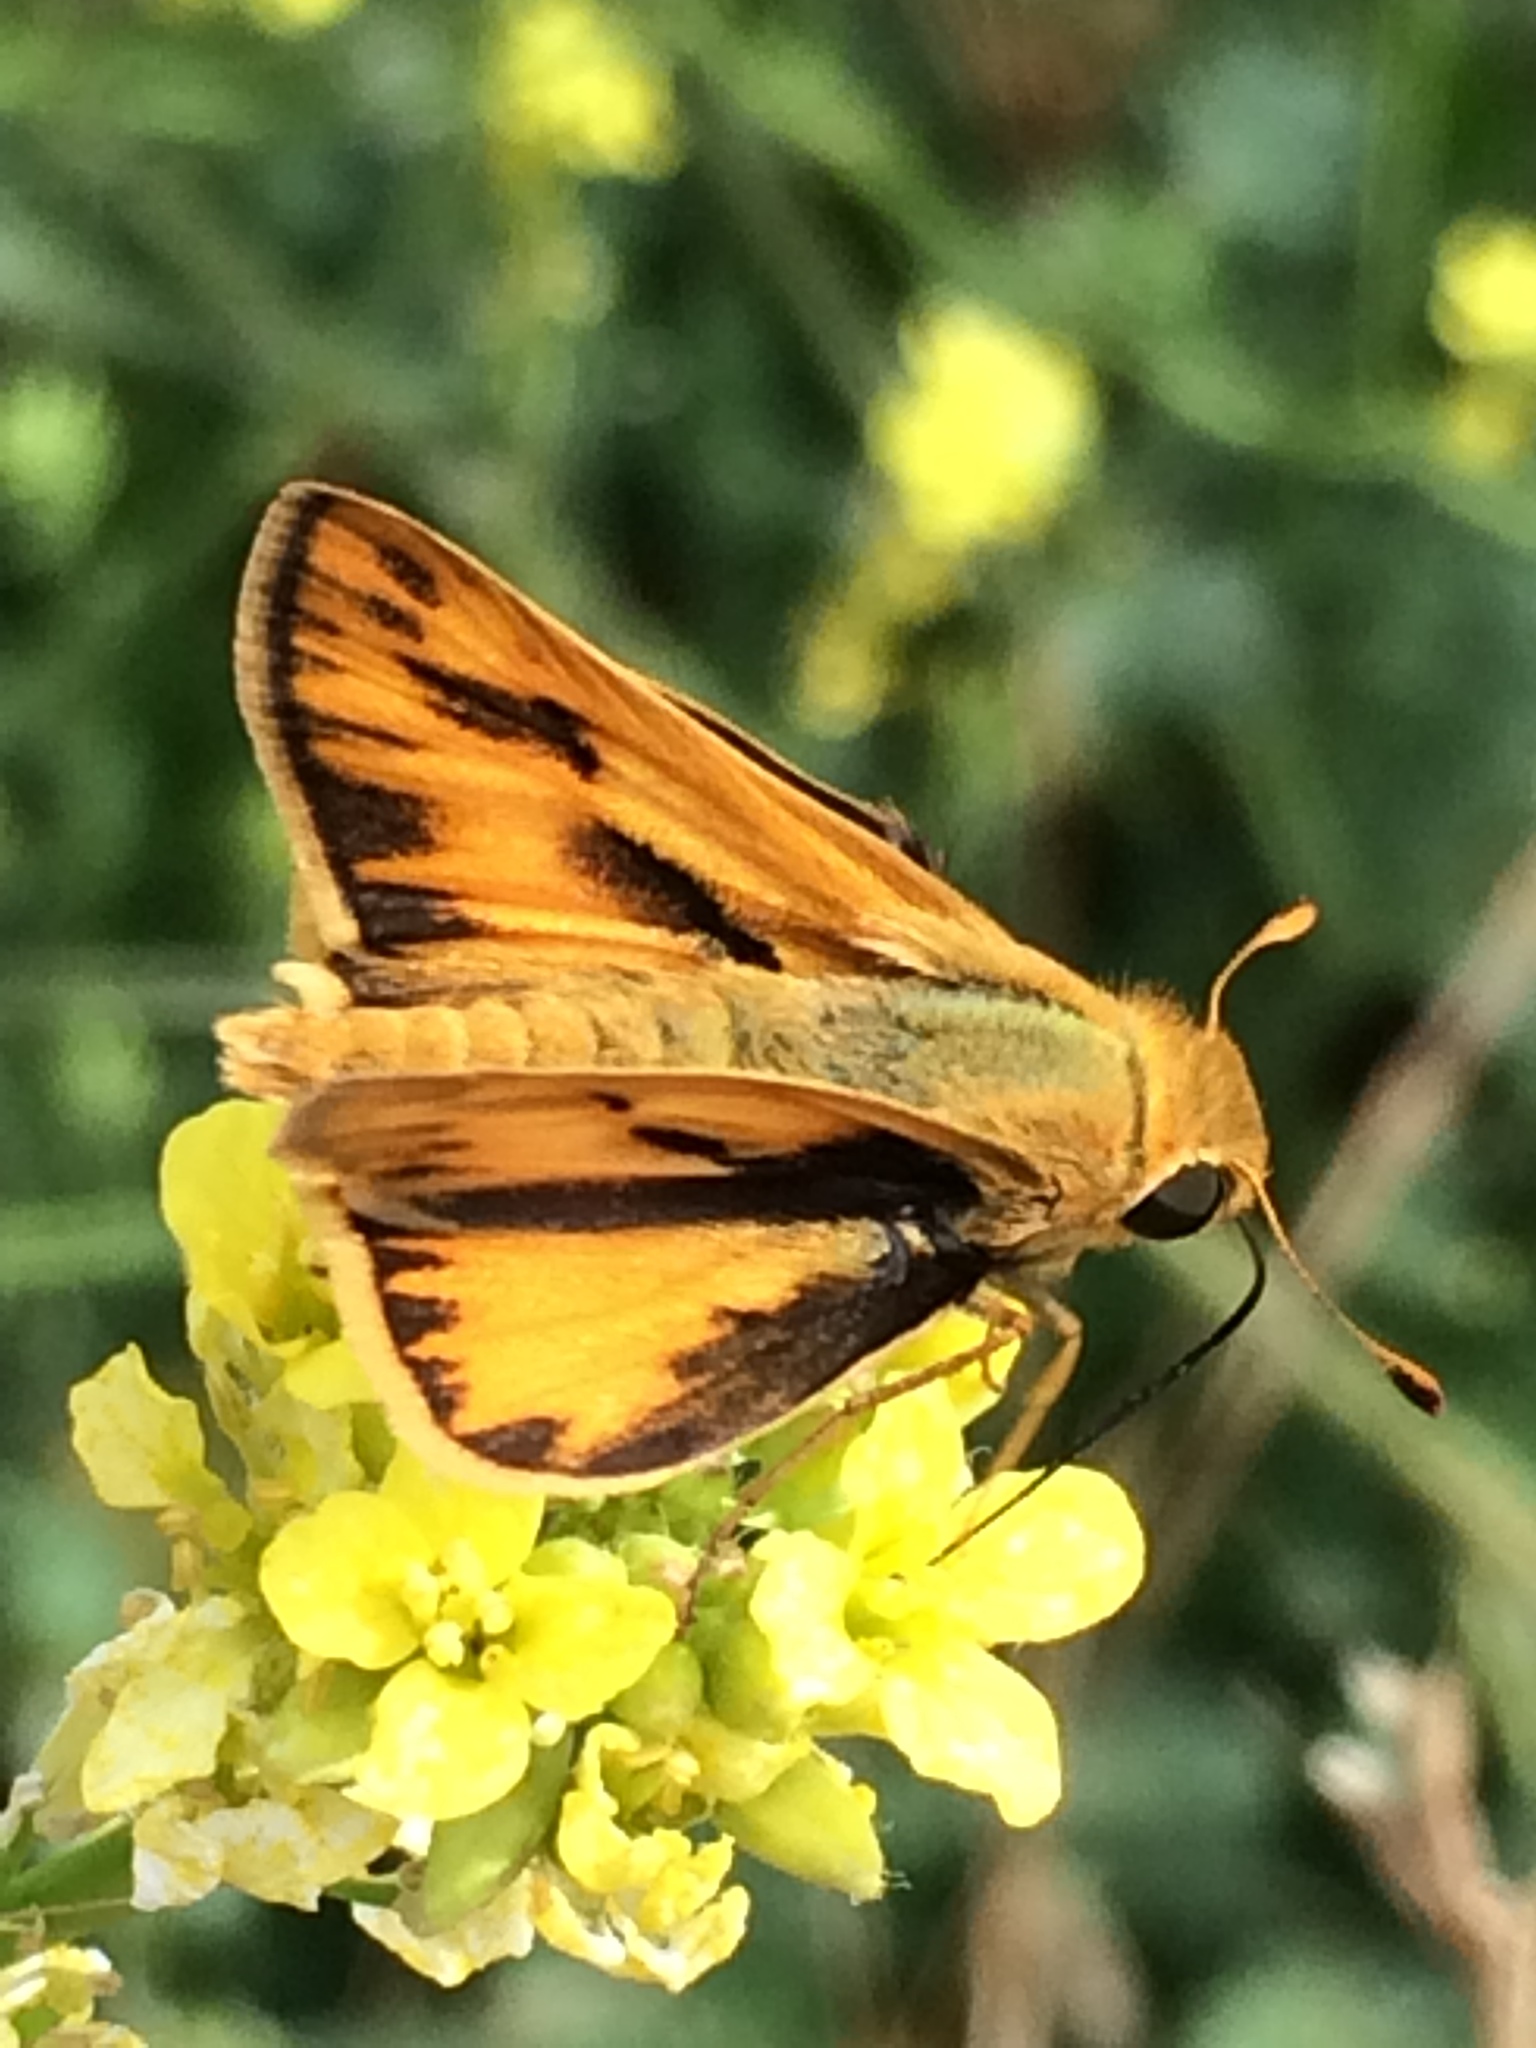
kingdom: Animalia
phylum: Arthropoda
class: Insecta
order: Lepidoptera
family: Hesperiidae
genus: Hylephila
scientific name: Hylephila phyleus
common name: Fiery skipper
